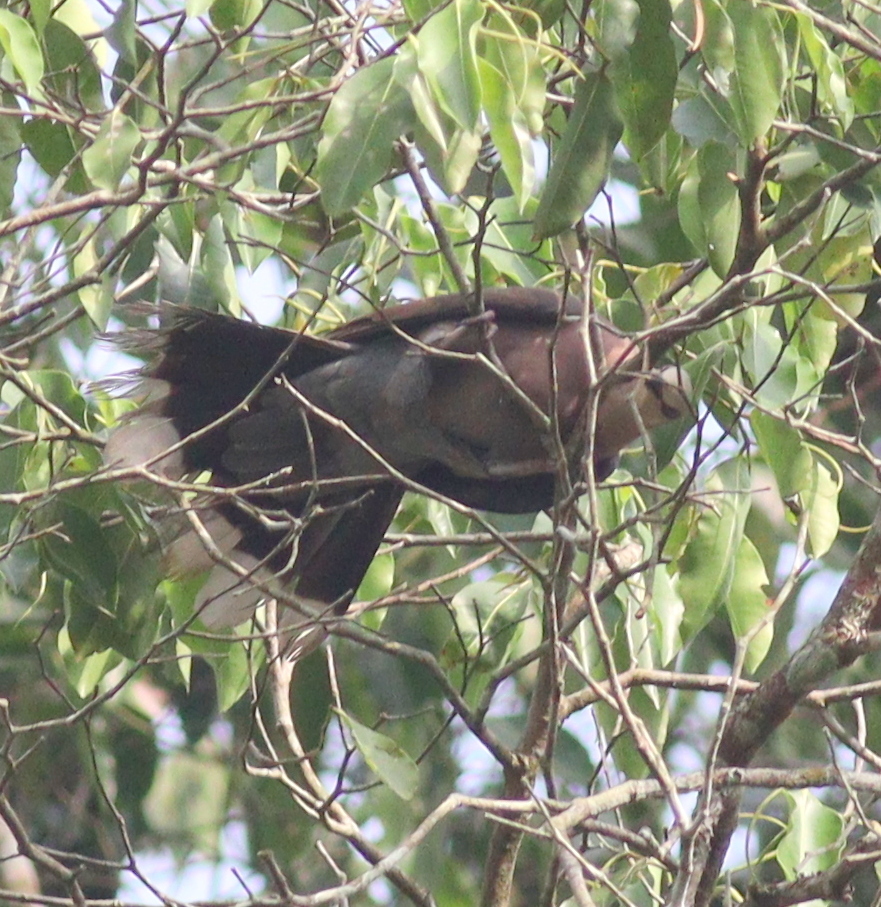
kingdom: Animalia
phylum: Chordata
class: Aves
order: Columbiformes
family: Columbidae
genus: Streptopelia
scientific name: Streptopelia semitorquata
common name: Red-eyed dove
